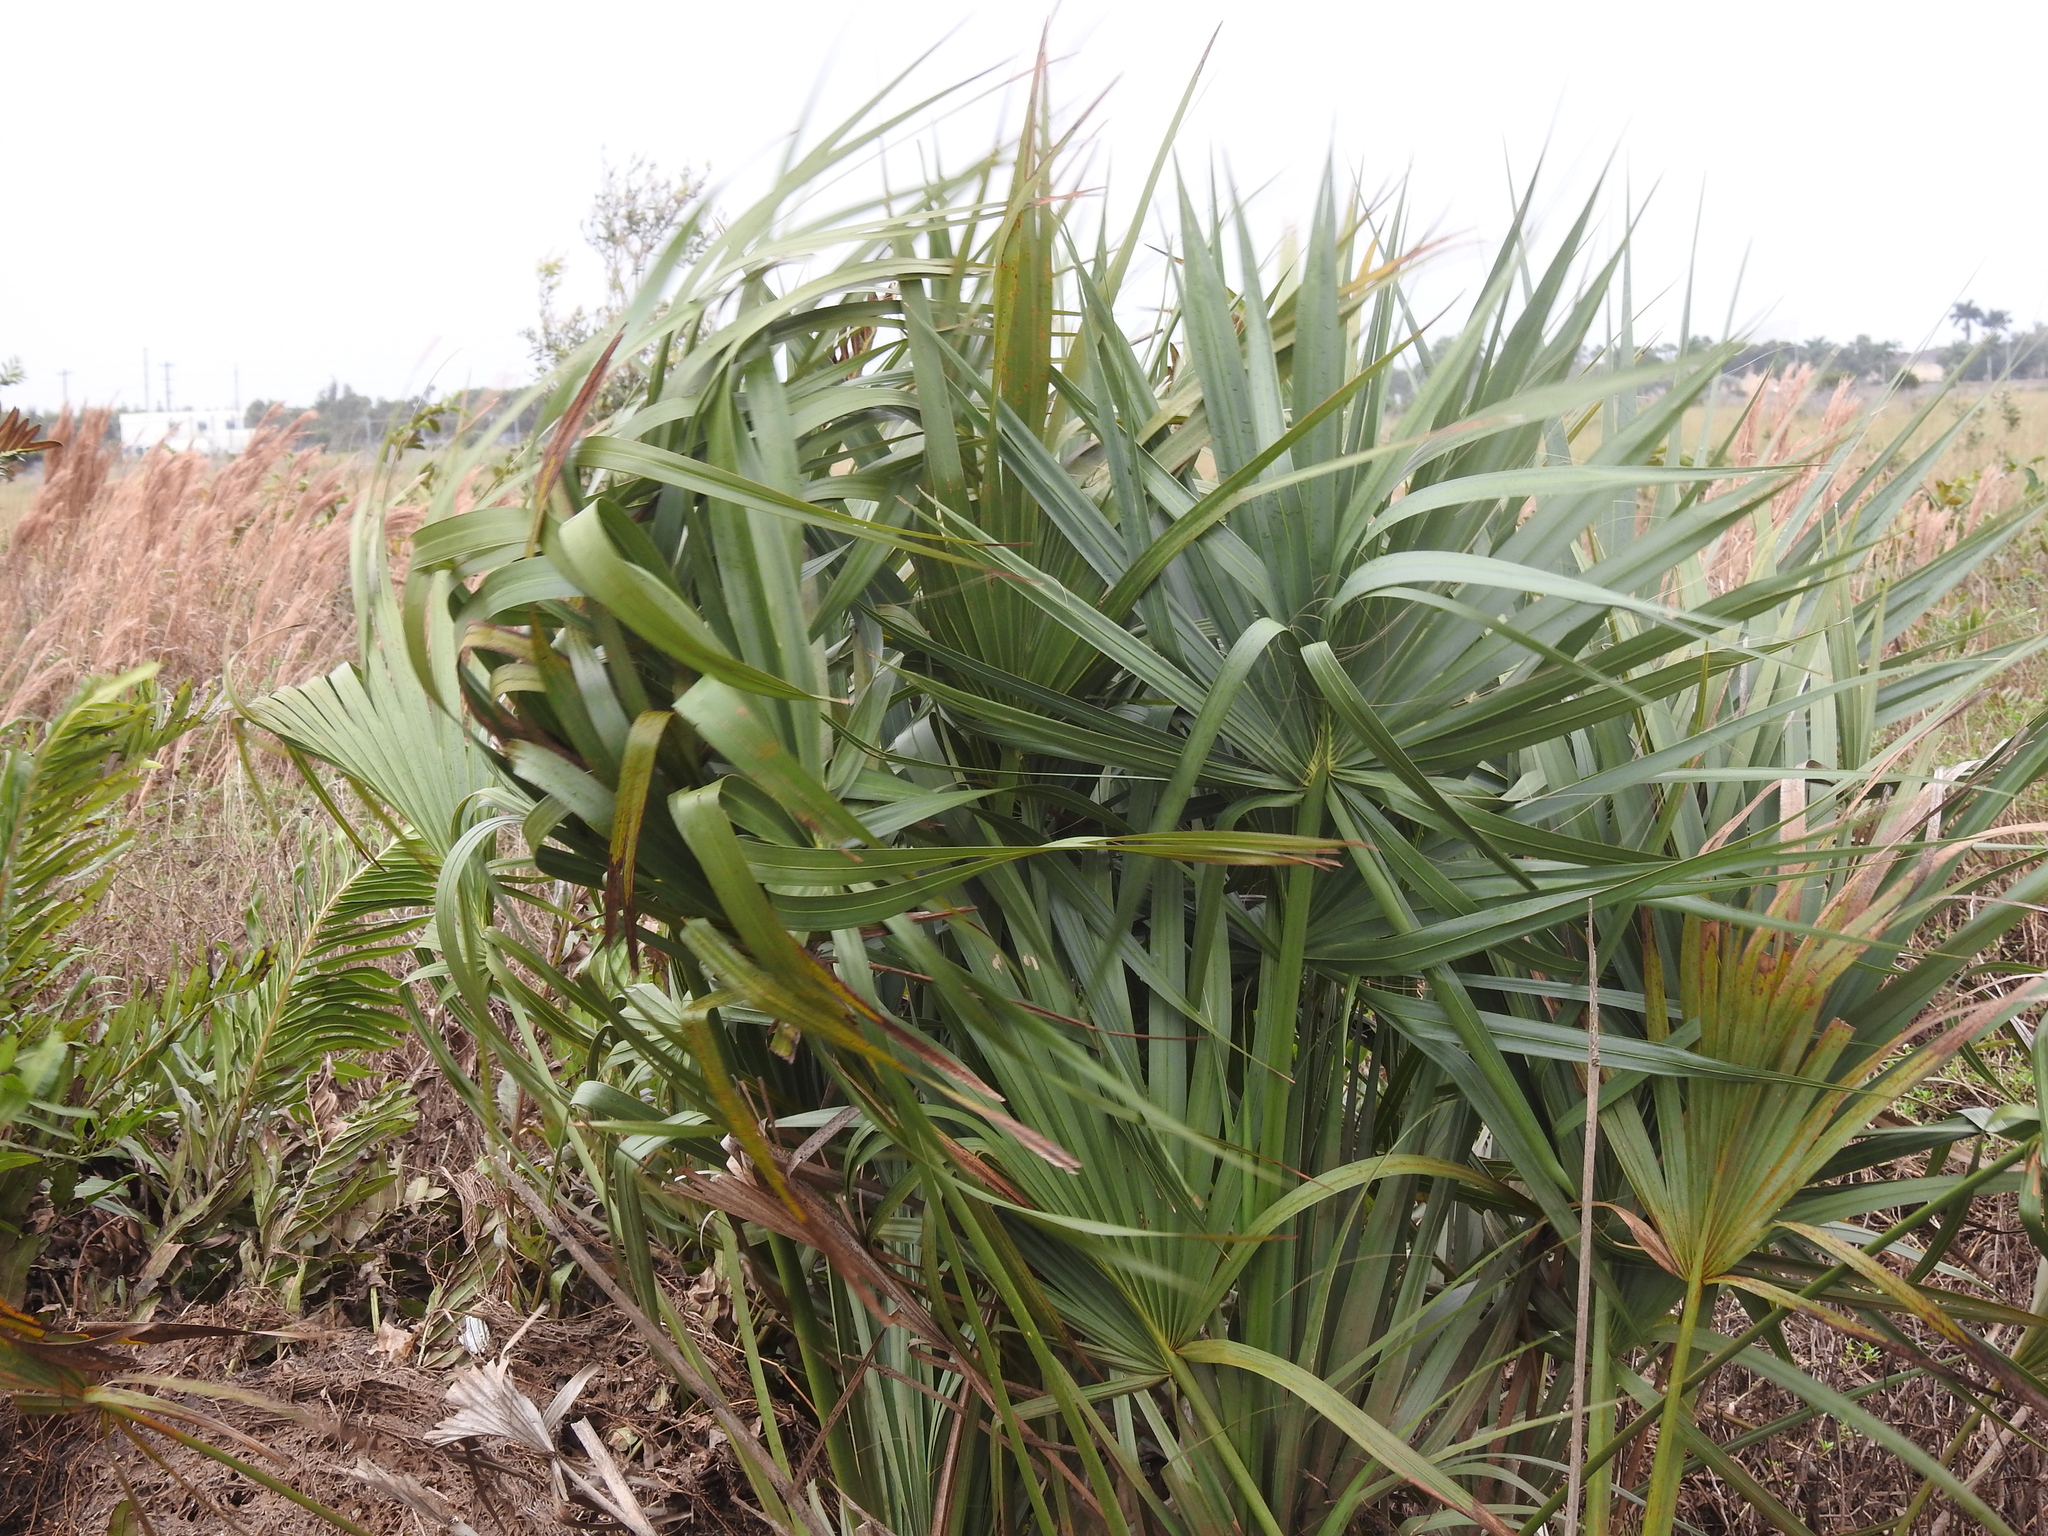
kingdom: Plantae
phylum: Tracheophyta
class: Liliopsida
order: Arecales
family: Arecaceae
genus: Sabal
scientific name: Sabal palmetto
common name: Blue palmetto
